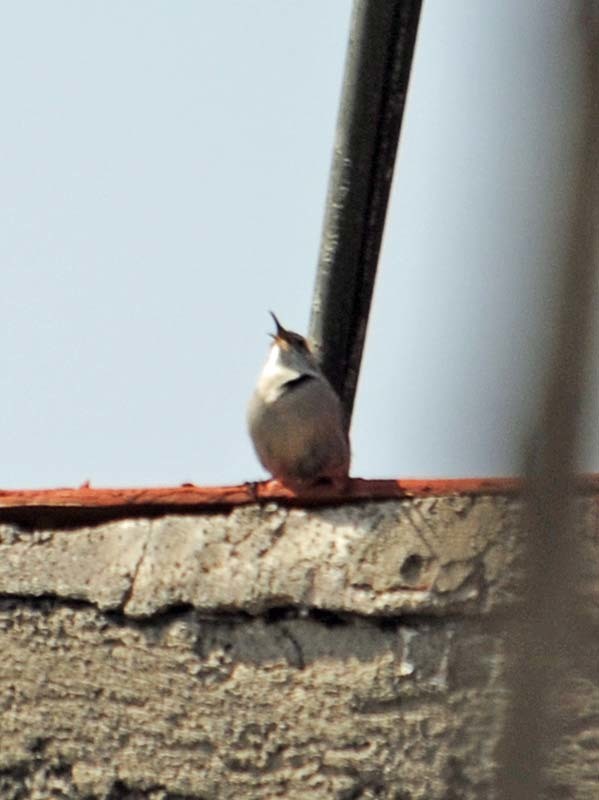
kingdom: Animalia
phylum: Chordata
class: Aves
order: Passeriformes
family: Troglodytidae
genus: Thryomanes
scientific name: Thryomanes bewickii
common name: Bewick's wren
